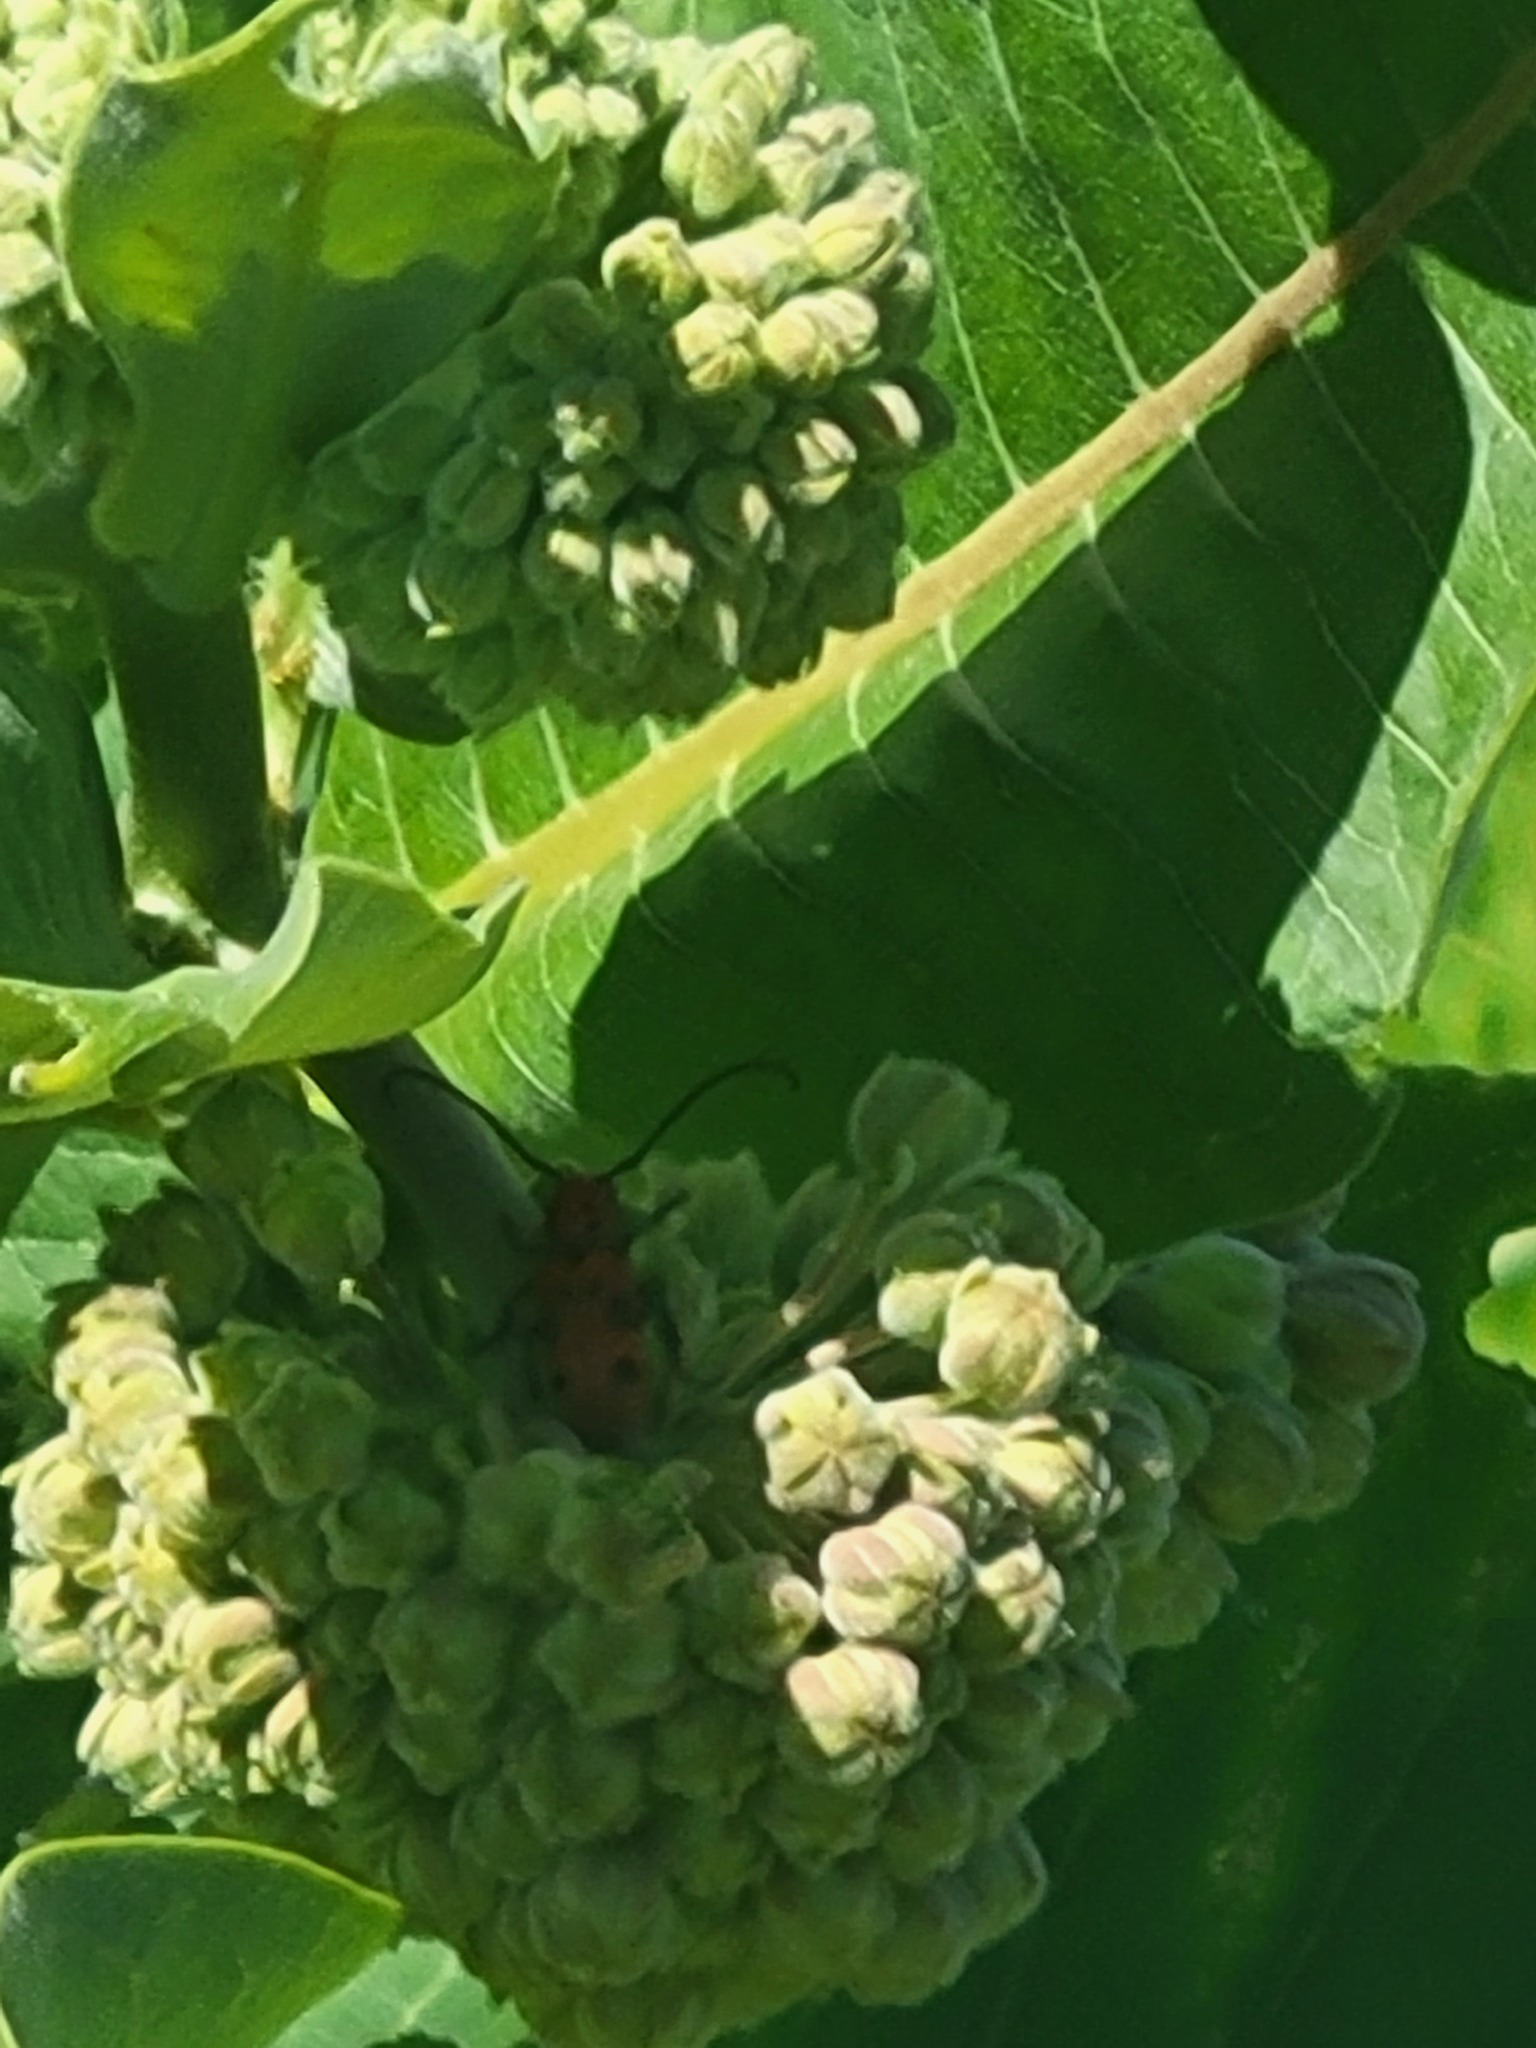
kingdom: Animalia
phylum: Arthropoda
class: Insecta
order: Coleoptera
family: Cerambycidae
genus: Tetraopes
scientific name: Tetraopes tetrophthalmus
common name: Red milkweed beetle
